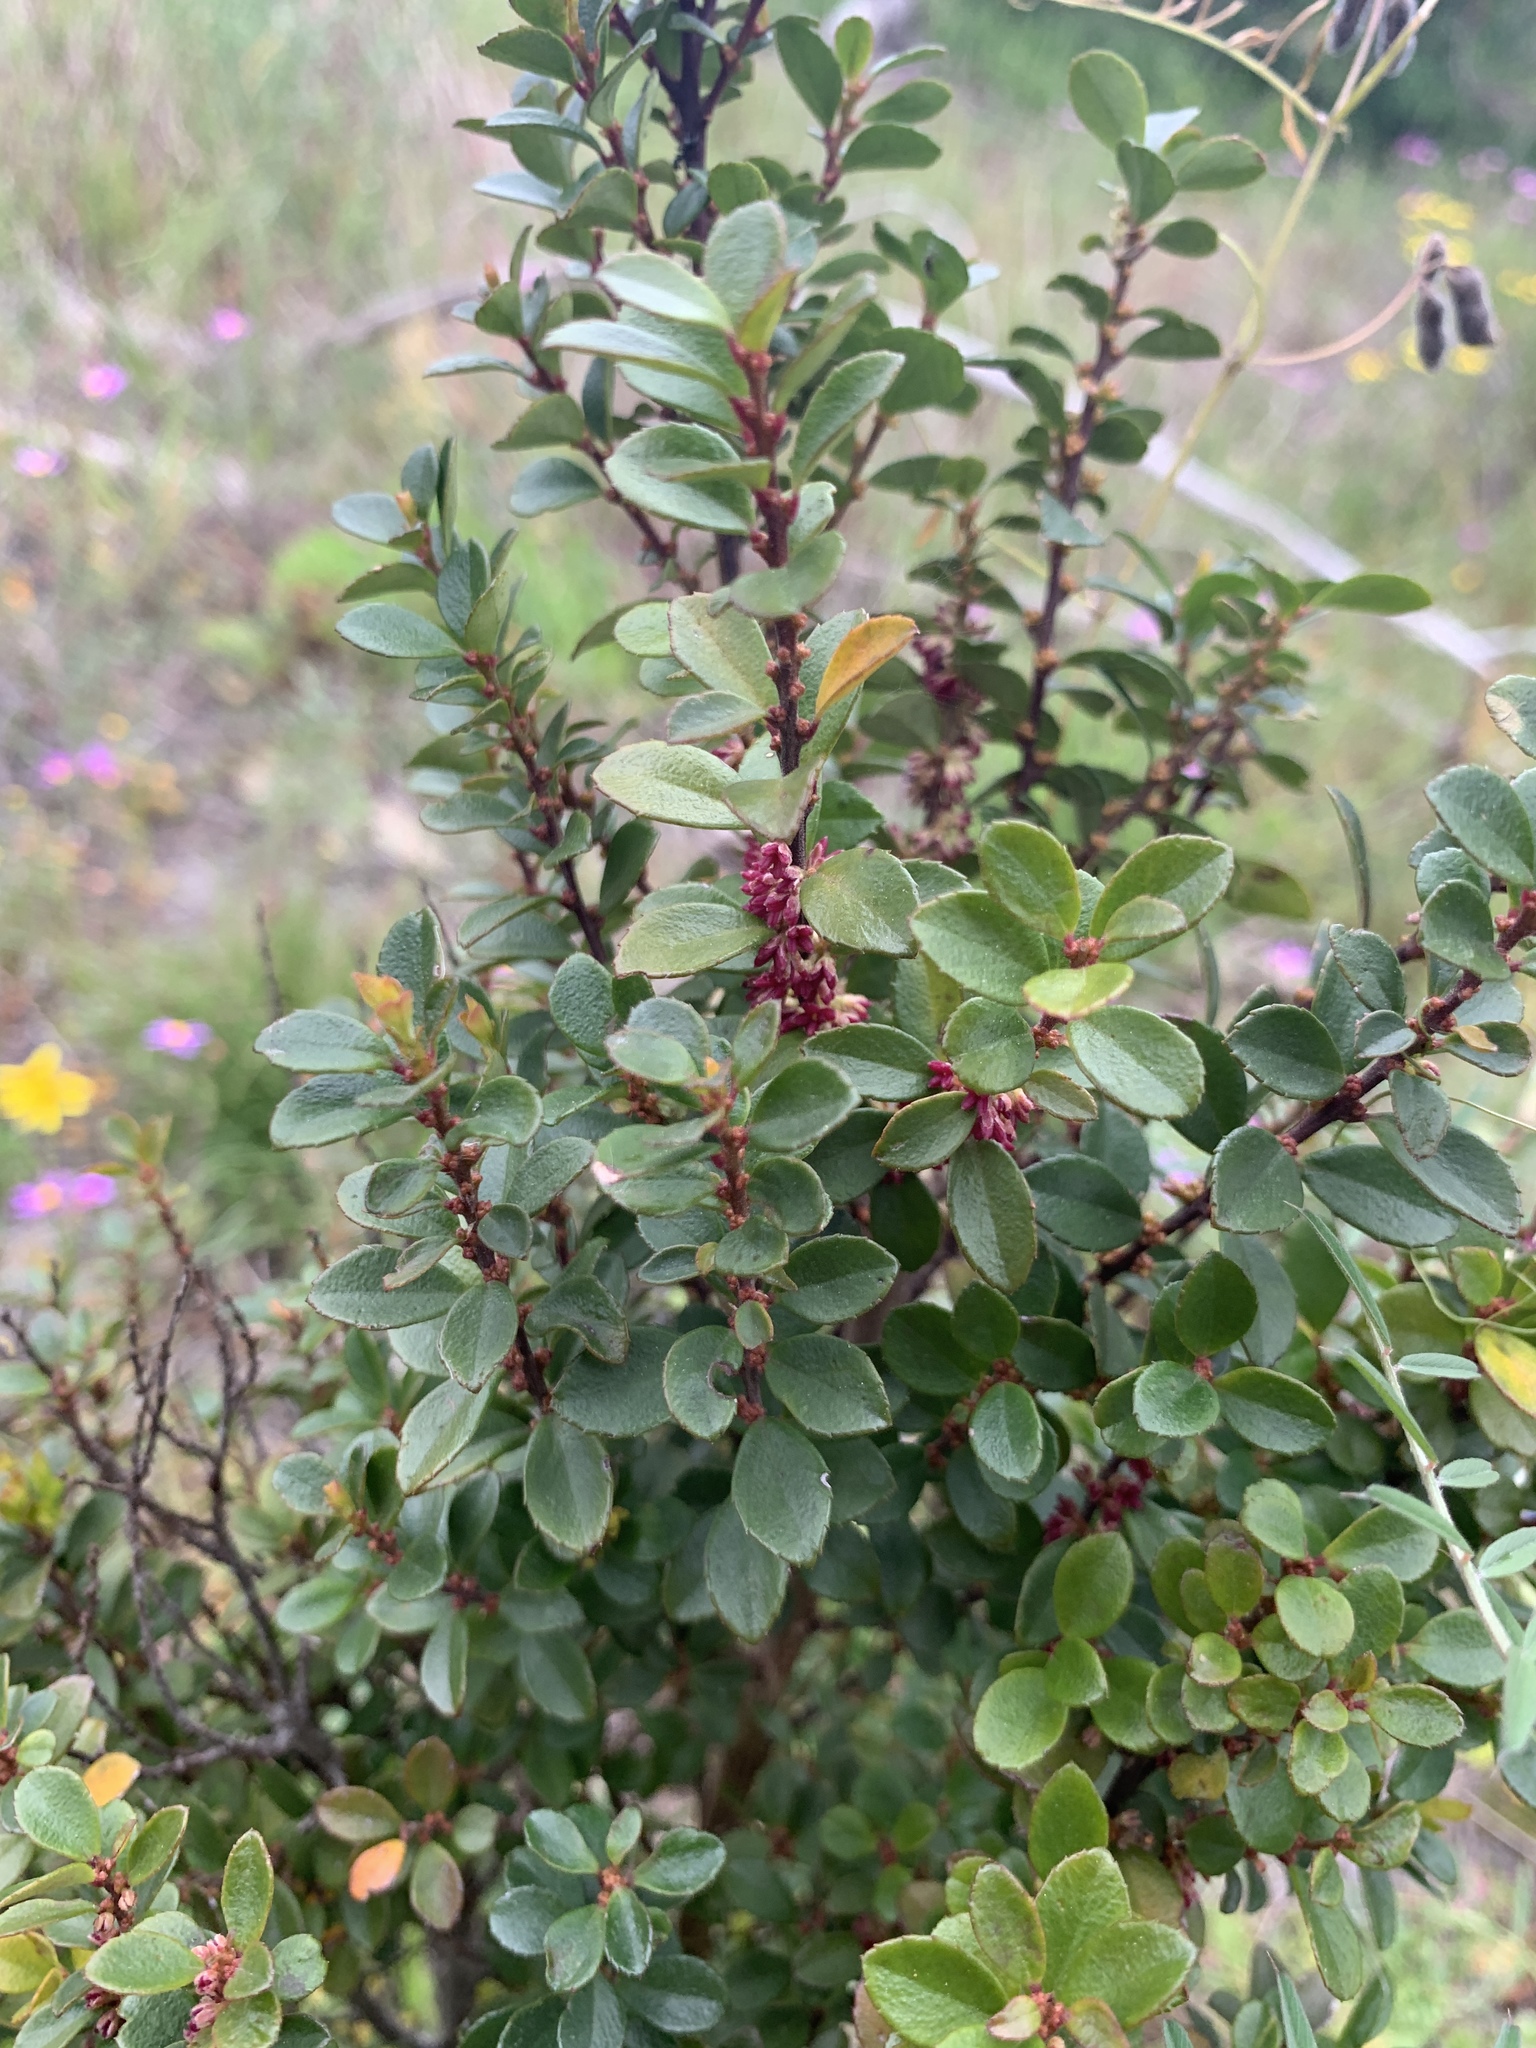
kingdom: Plantae
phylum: Tracheophyta
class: Magnoliopsida
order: Ericales
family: Primulaceae
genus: Myrsine
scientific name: Myrsine africana
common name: African-boxwood
